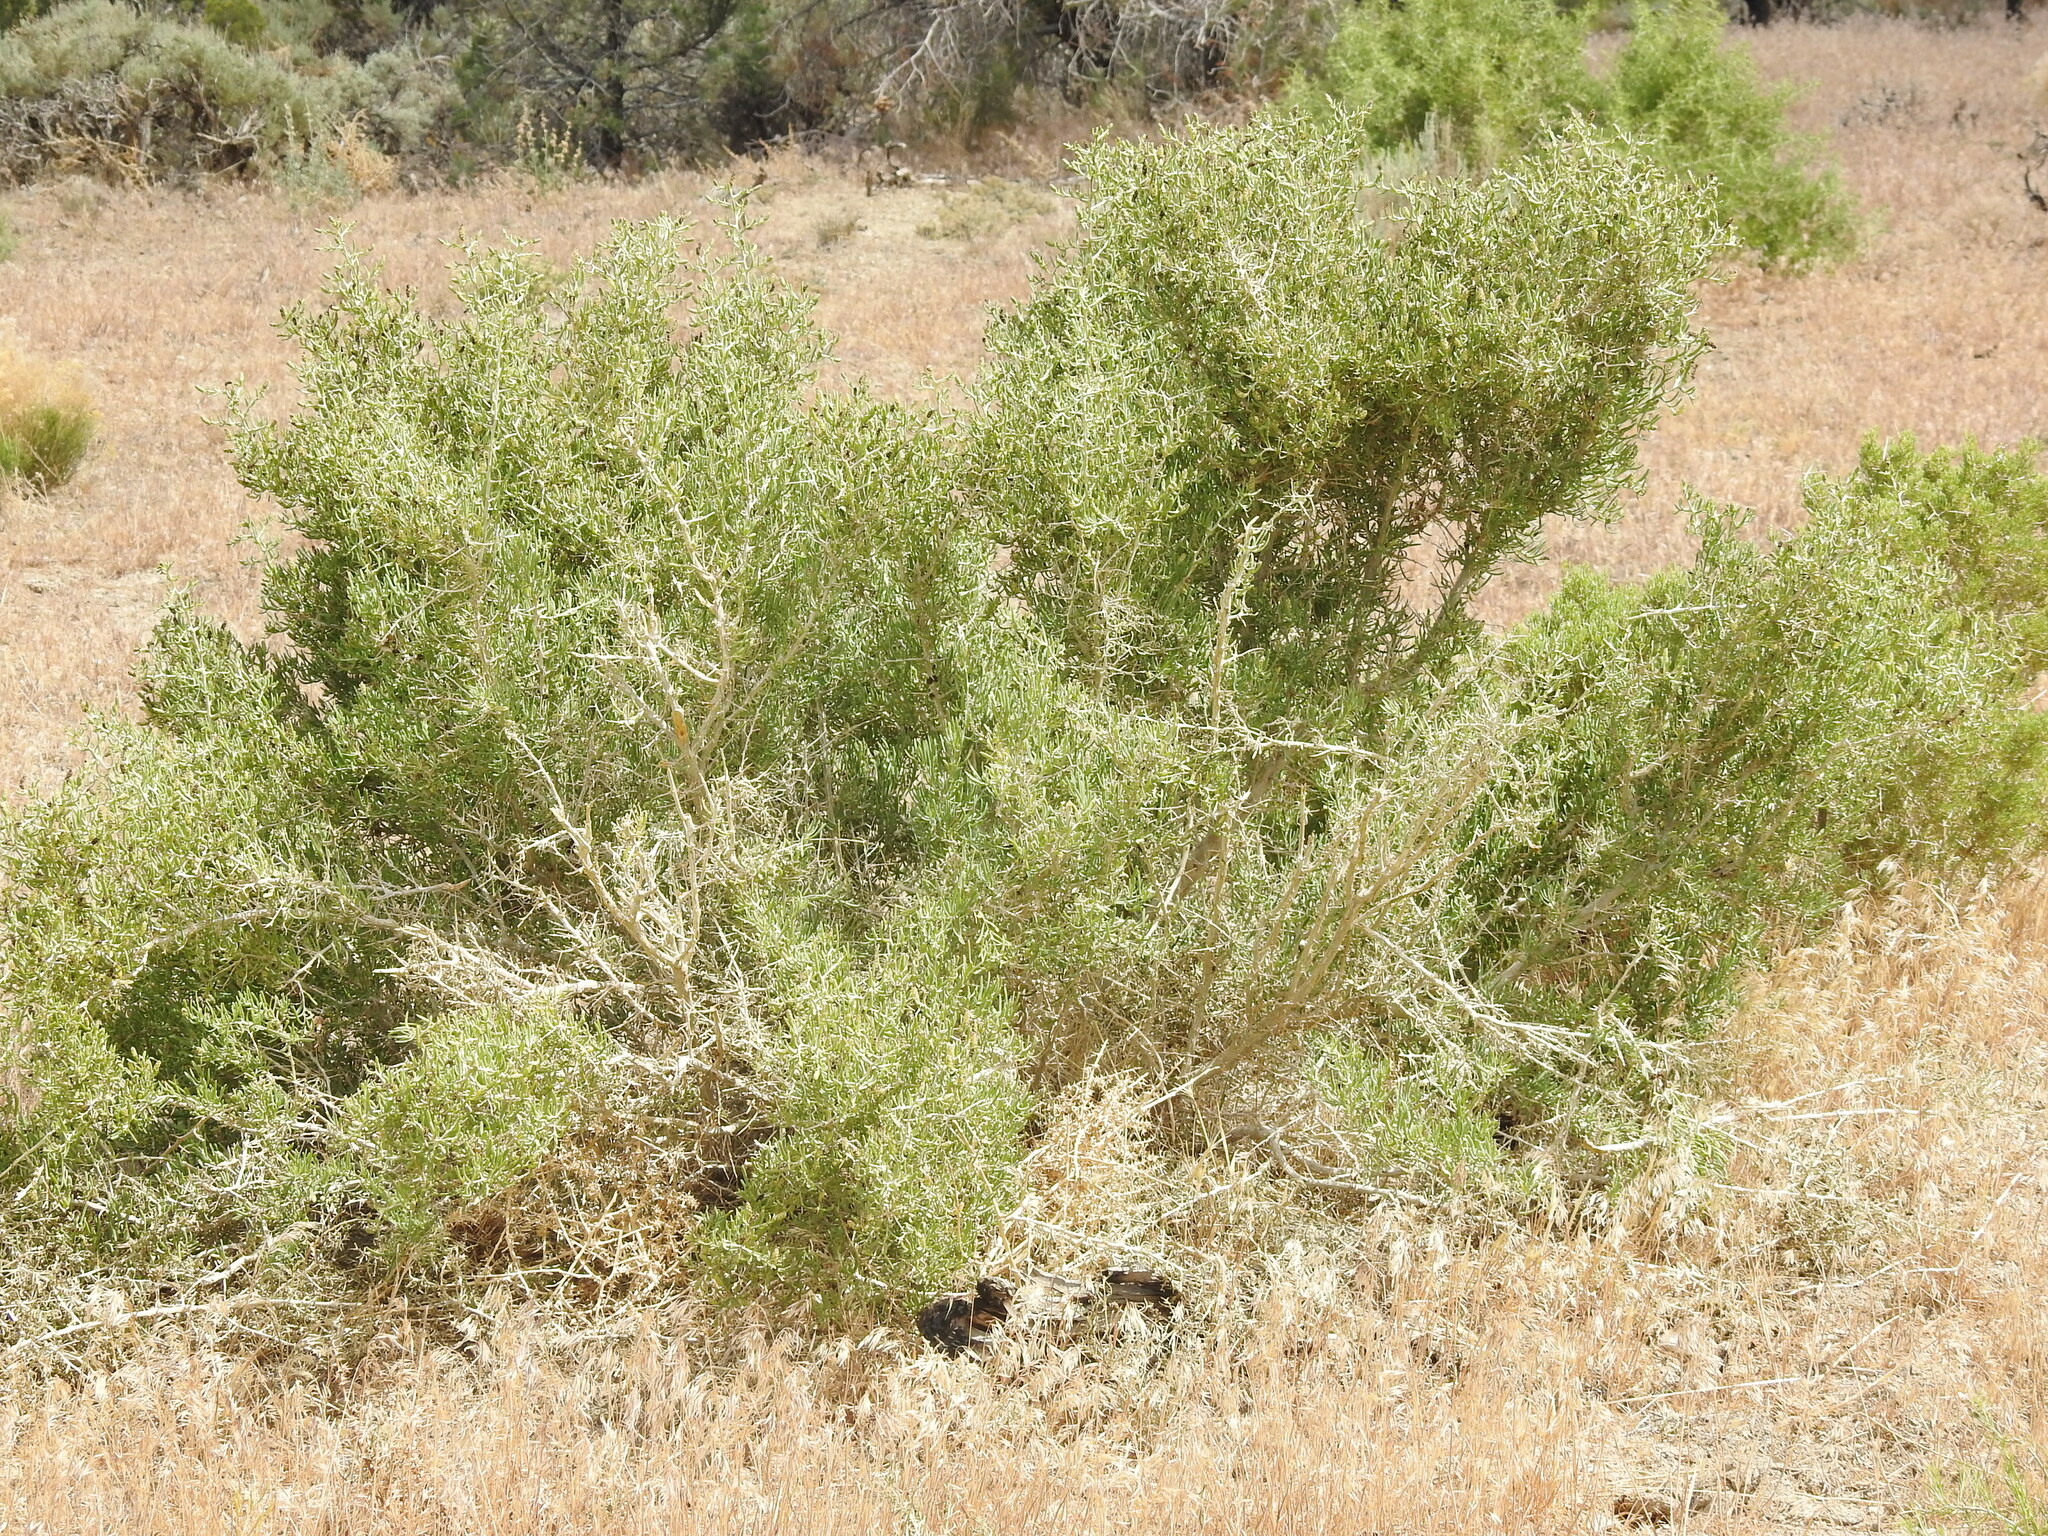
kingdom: Plantae
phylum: Tracheophyta
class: Magnoliopsida
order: Caryophyllales
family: Sarcobataceae
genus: Sarcobatus
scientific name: Sarcobatus vermiculatus
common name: Greasewood
